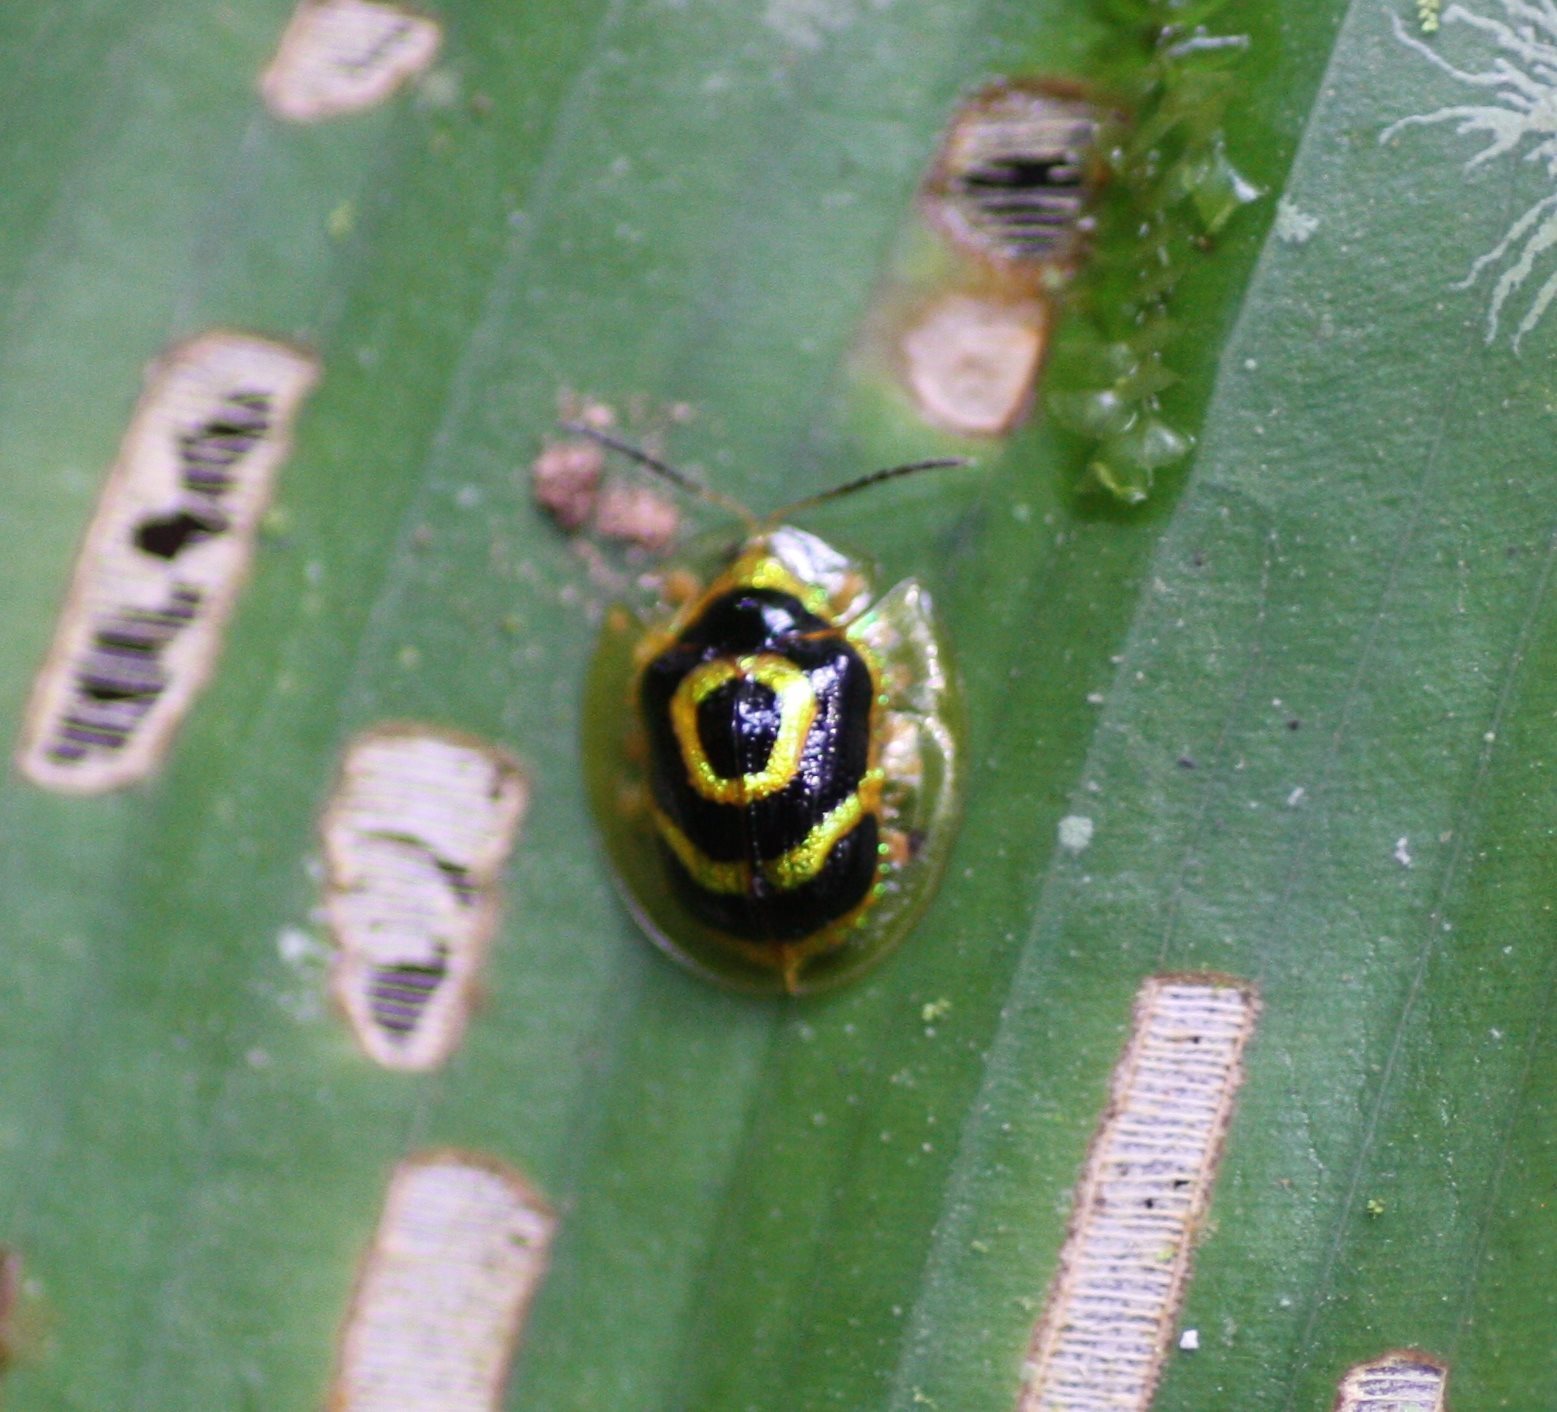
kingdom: Animalia
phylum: Arthropoda
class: Insecta
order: Coleoptera
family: Chrysomelidae
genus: Ischnocodia
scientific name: Ischnocodia annulus
